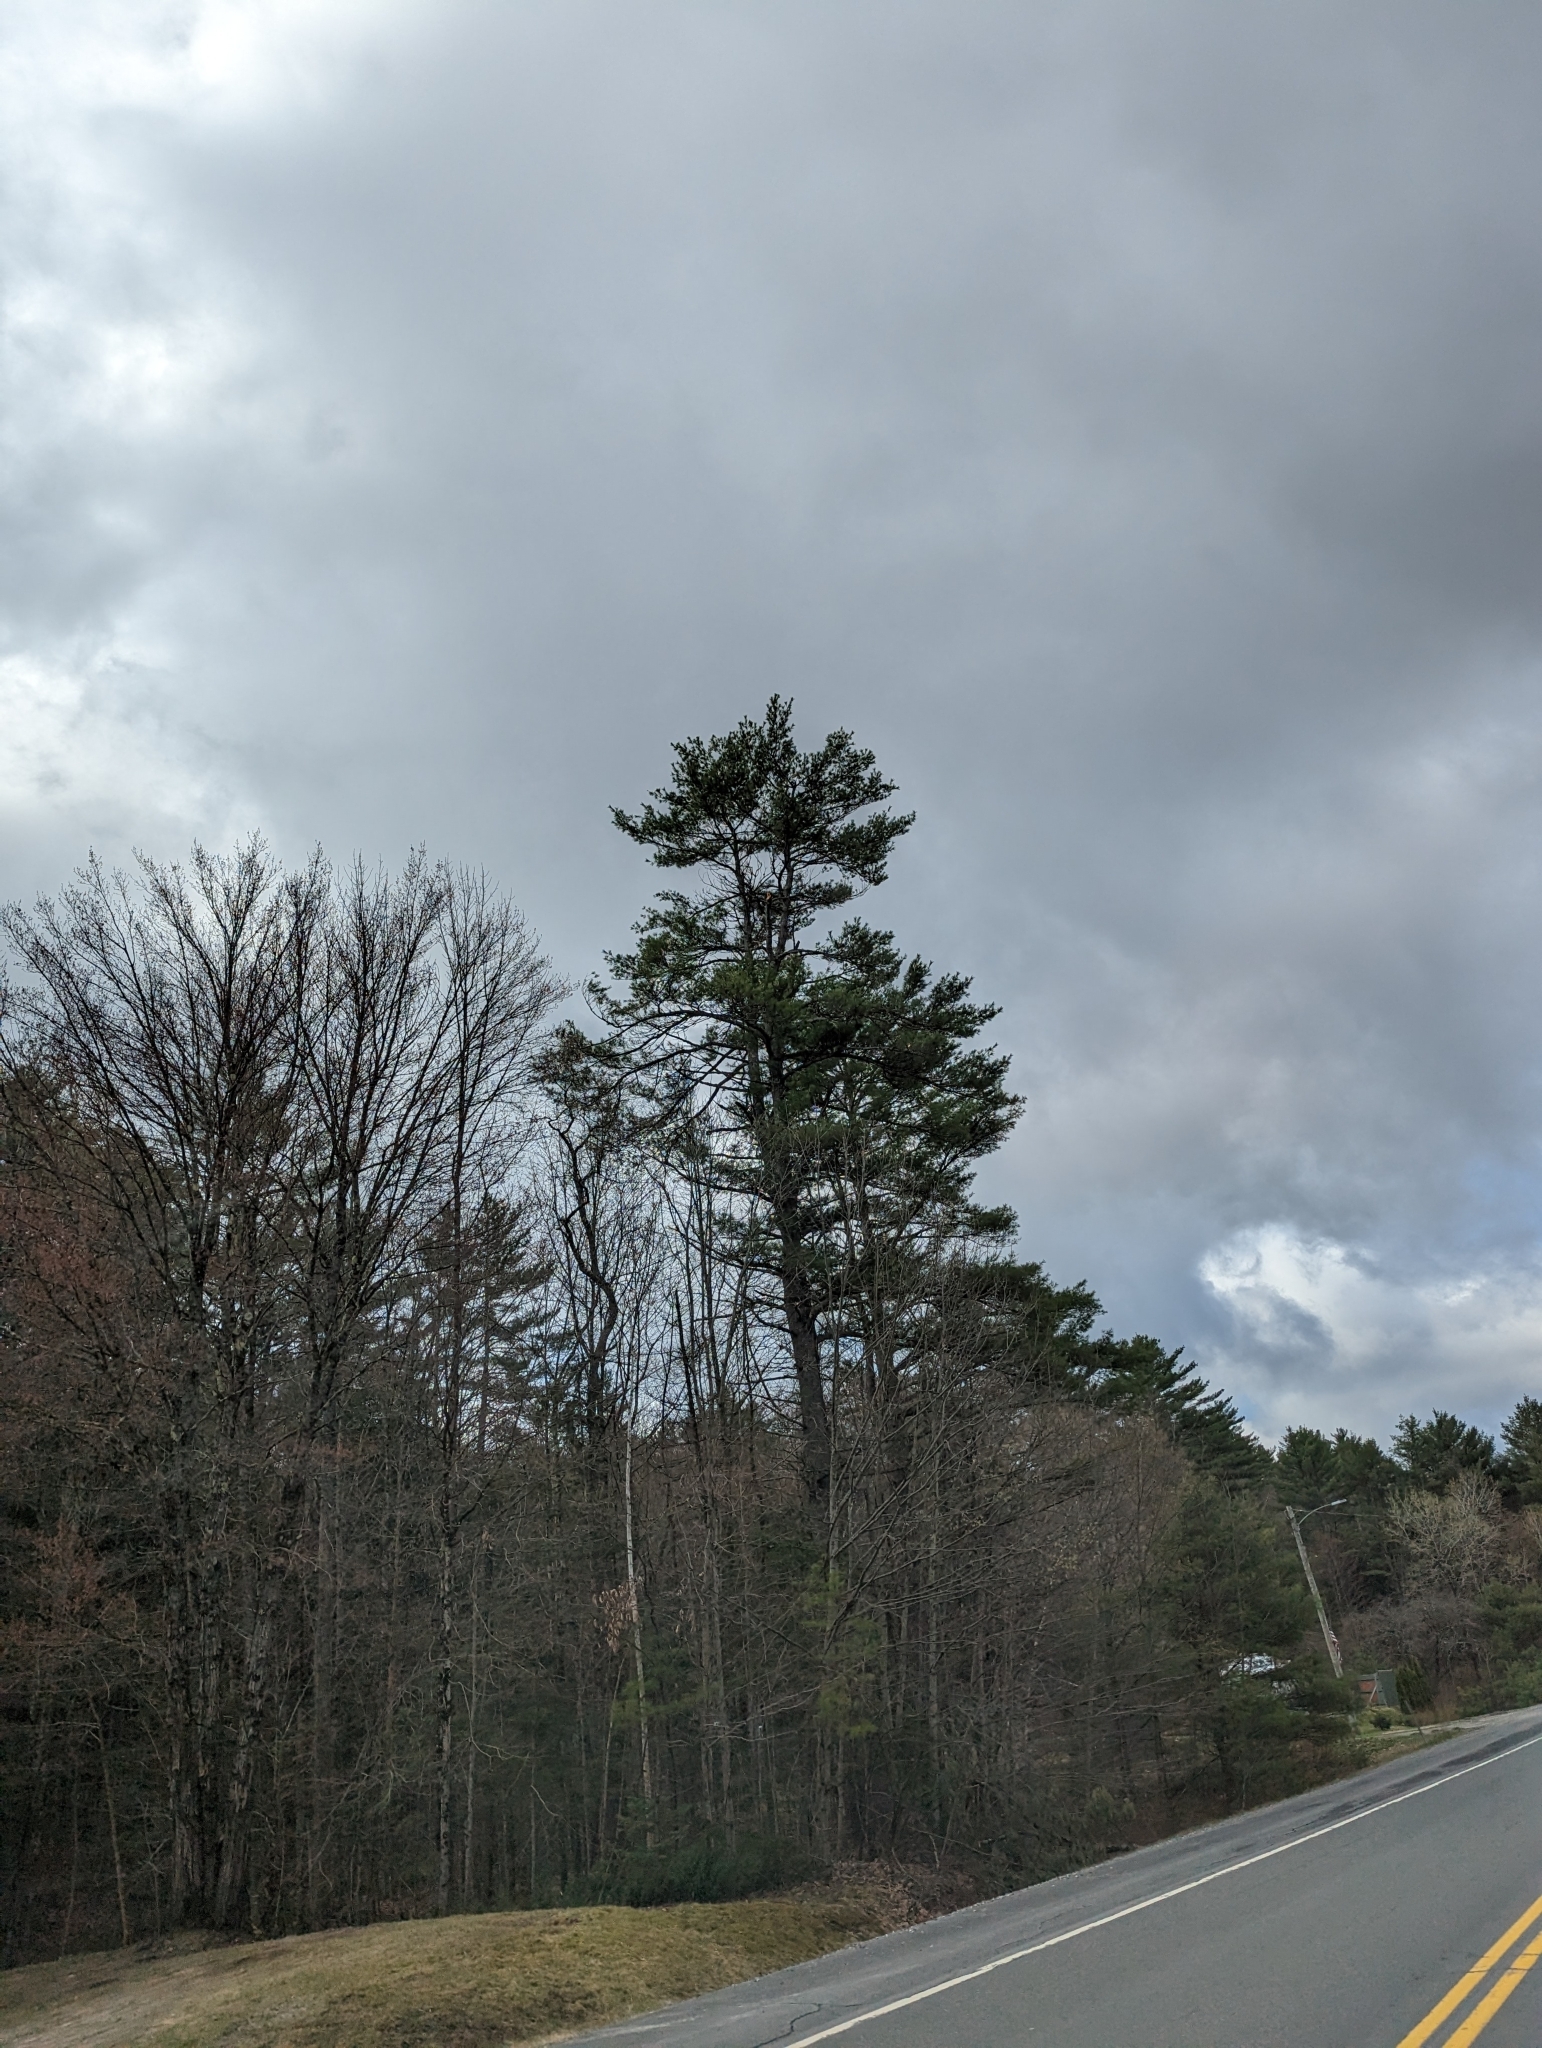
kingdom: Plantae
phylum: Tracheophyta
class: Pinopsida
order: Pinales
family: Pinaceae
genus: Pinus
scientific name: Pinus strobus
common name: Weymouth pine
